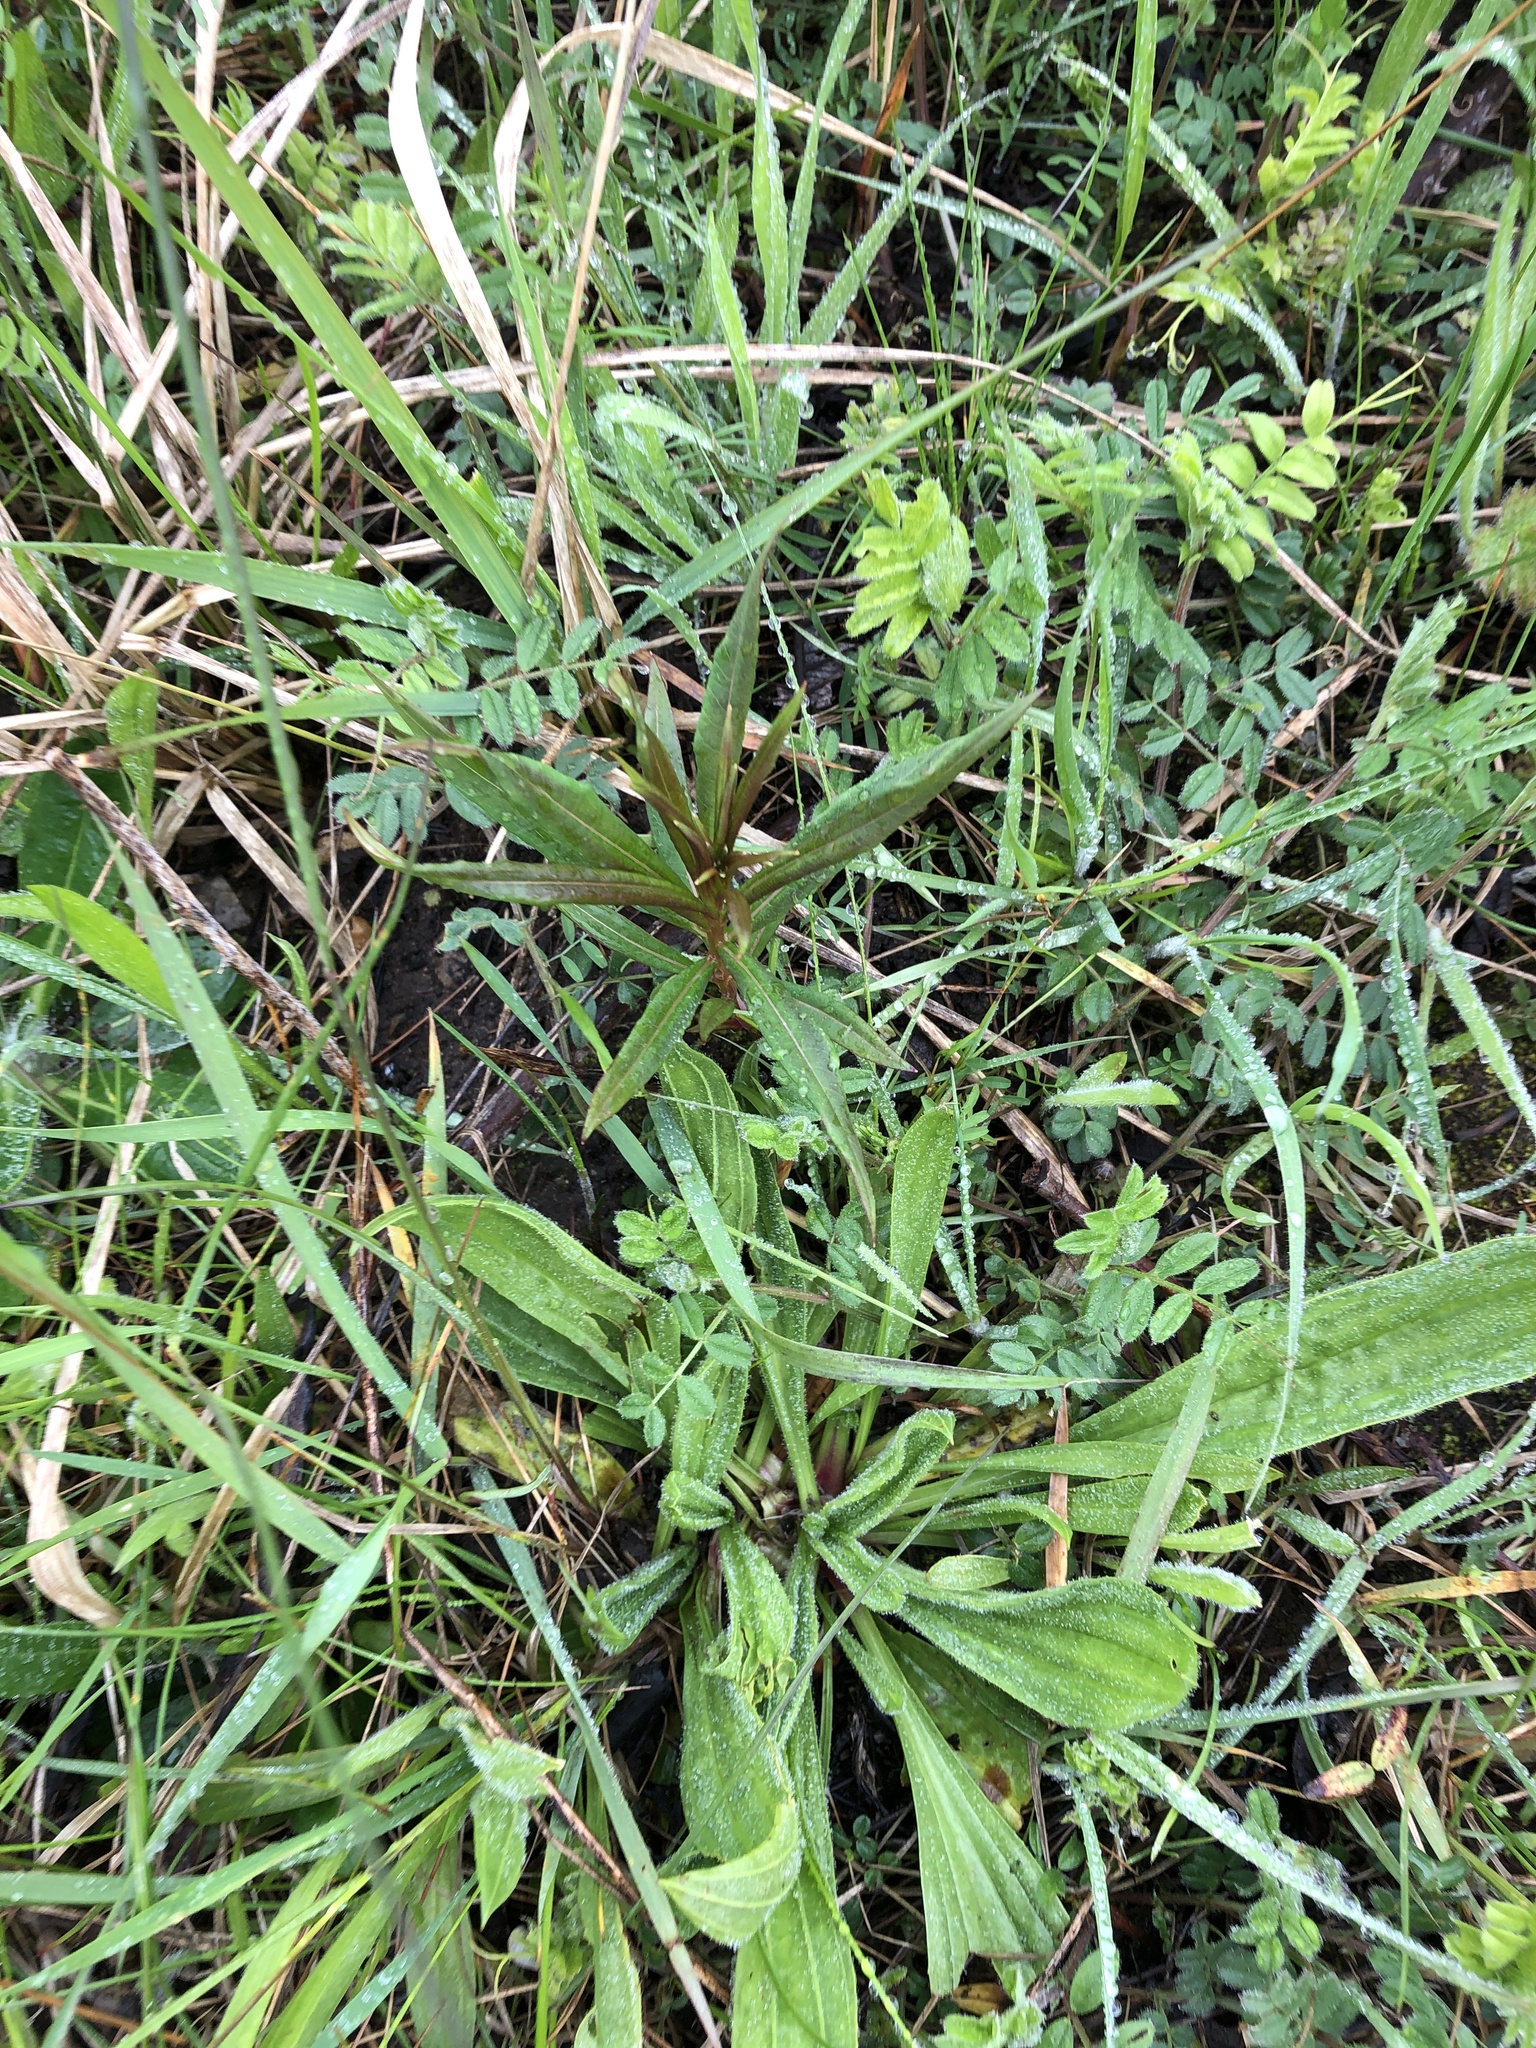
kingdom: Plantae
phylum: Tracheophyta
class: Magnoliopsida
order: Myrtales
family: Onagraceae
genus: Chamaenerion
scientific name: Chamaenerion angustifolium
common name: Fireweed
